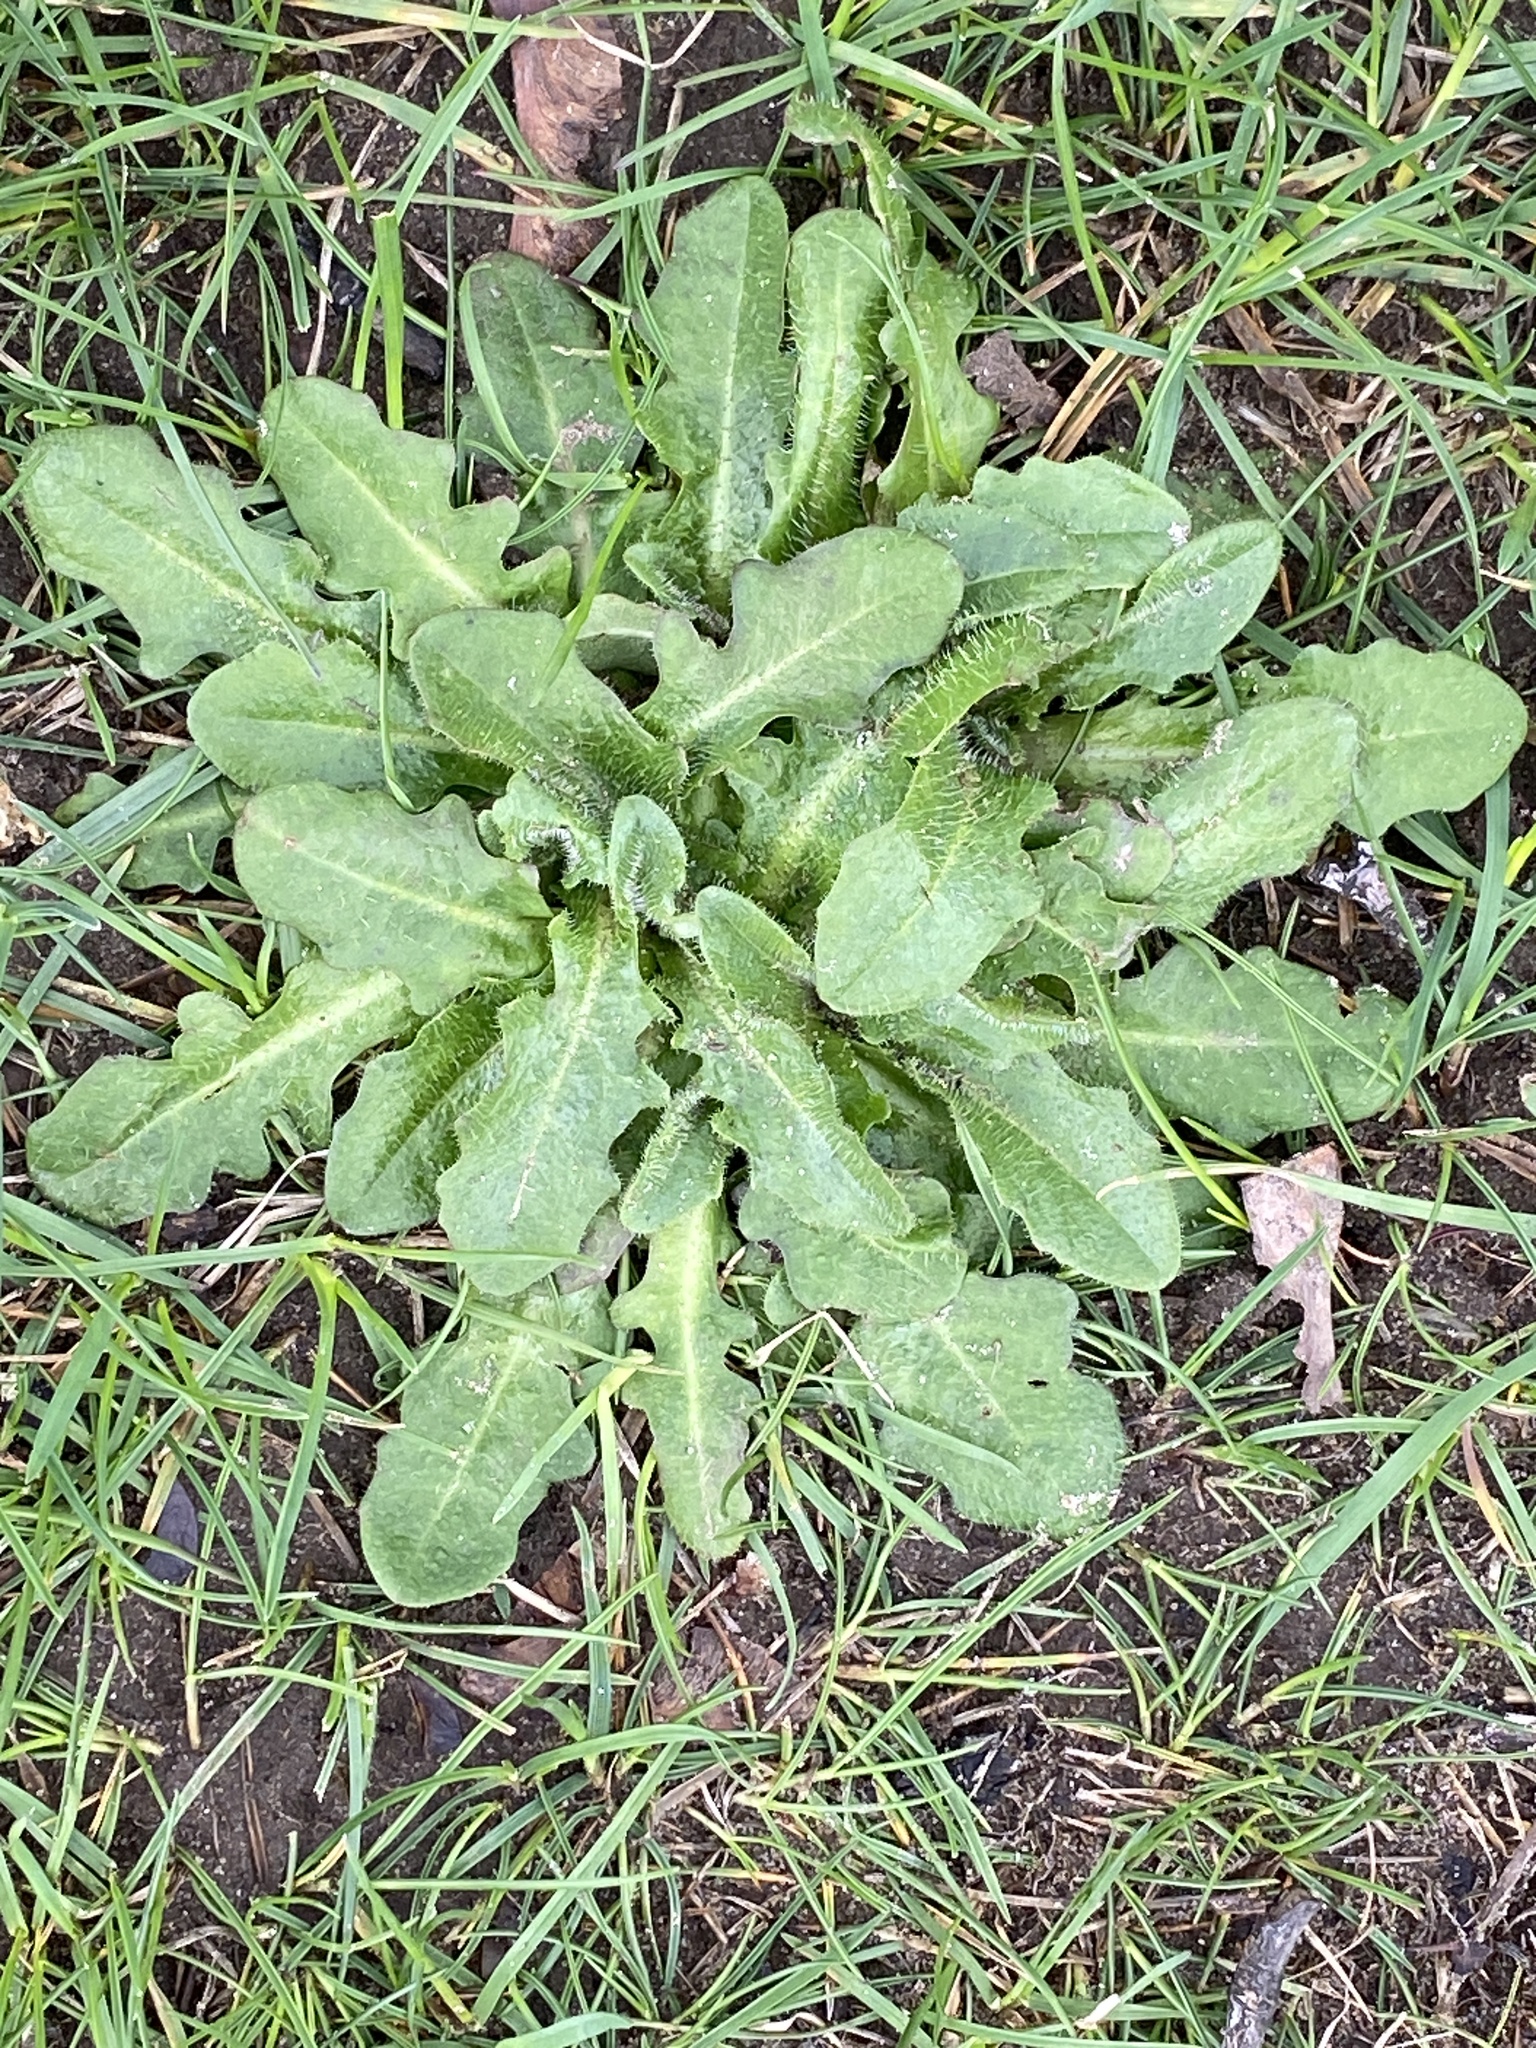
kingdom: Plantae
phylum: Tracheophyta
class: Magnoliopsida
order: Asterales
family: Asteraceae
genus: Hypochaeris
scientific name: Hypochaeris radicata
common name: Flatweed
